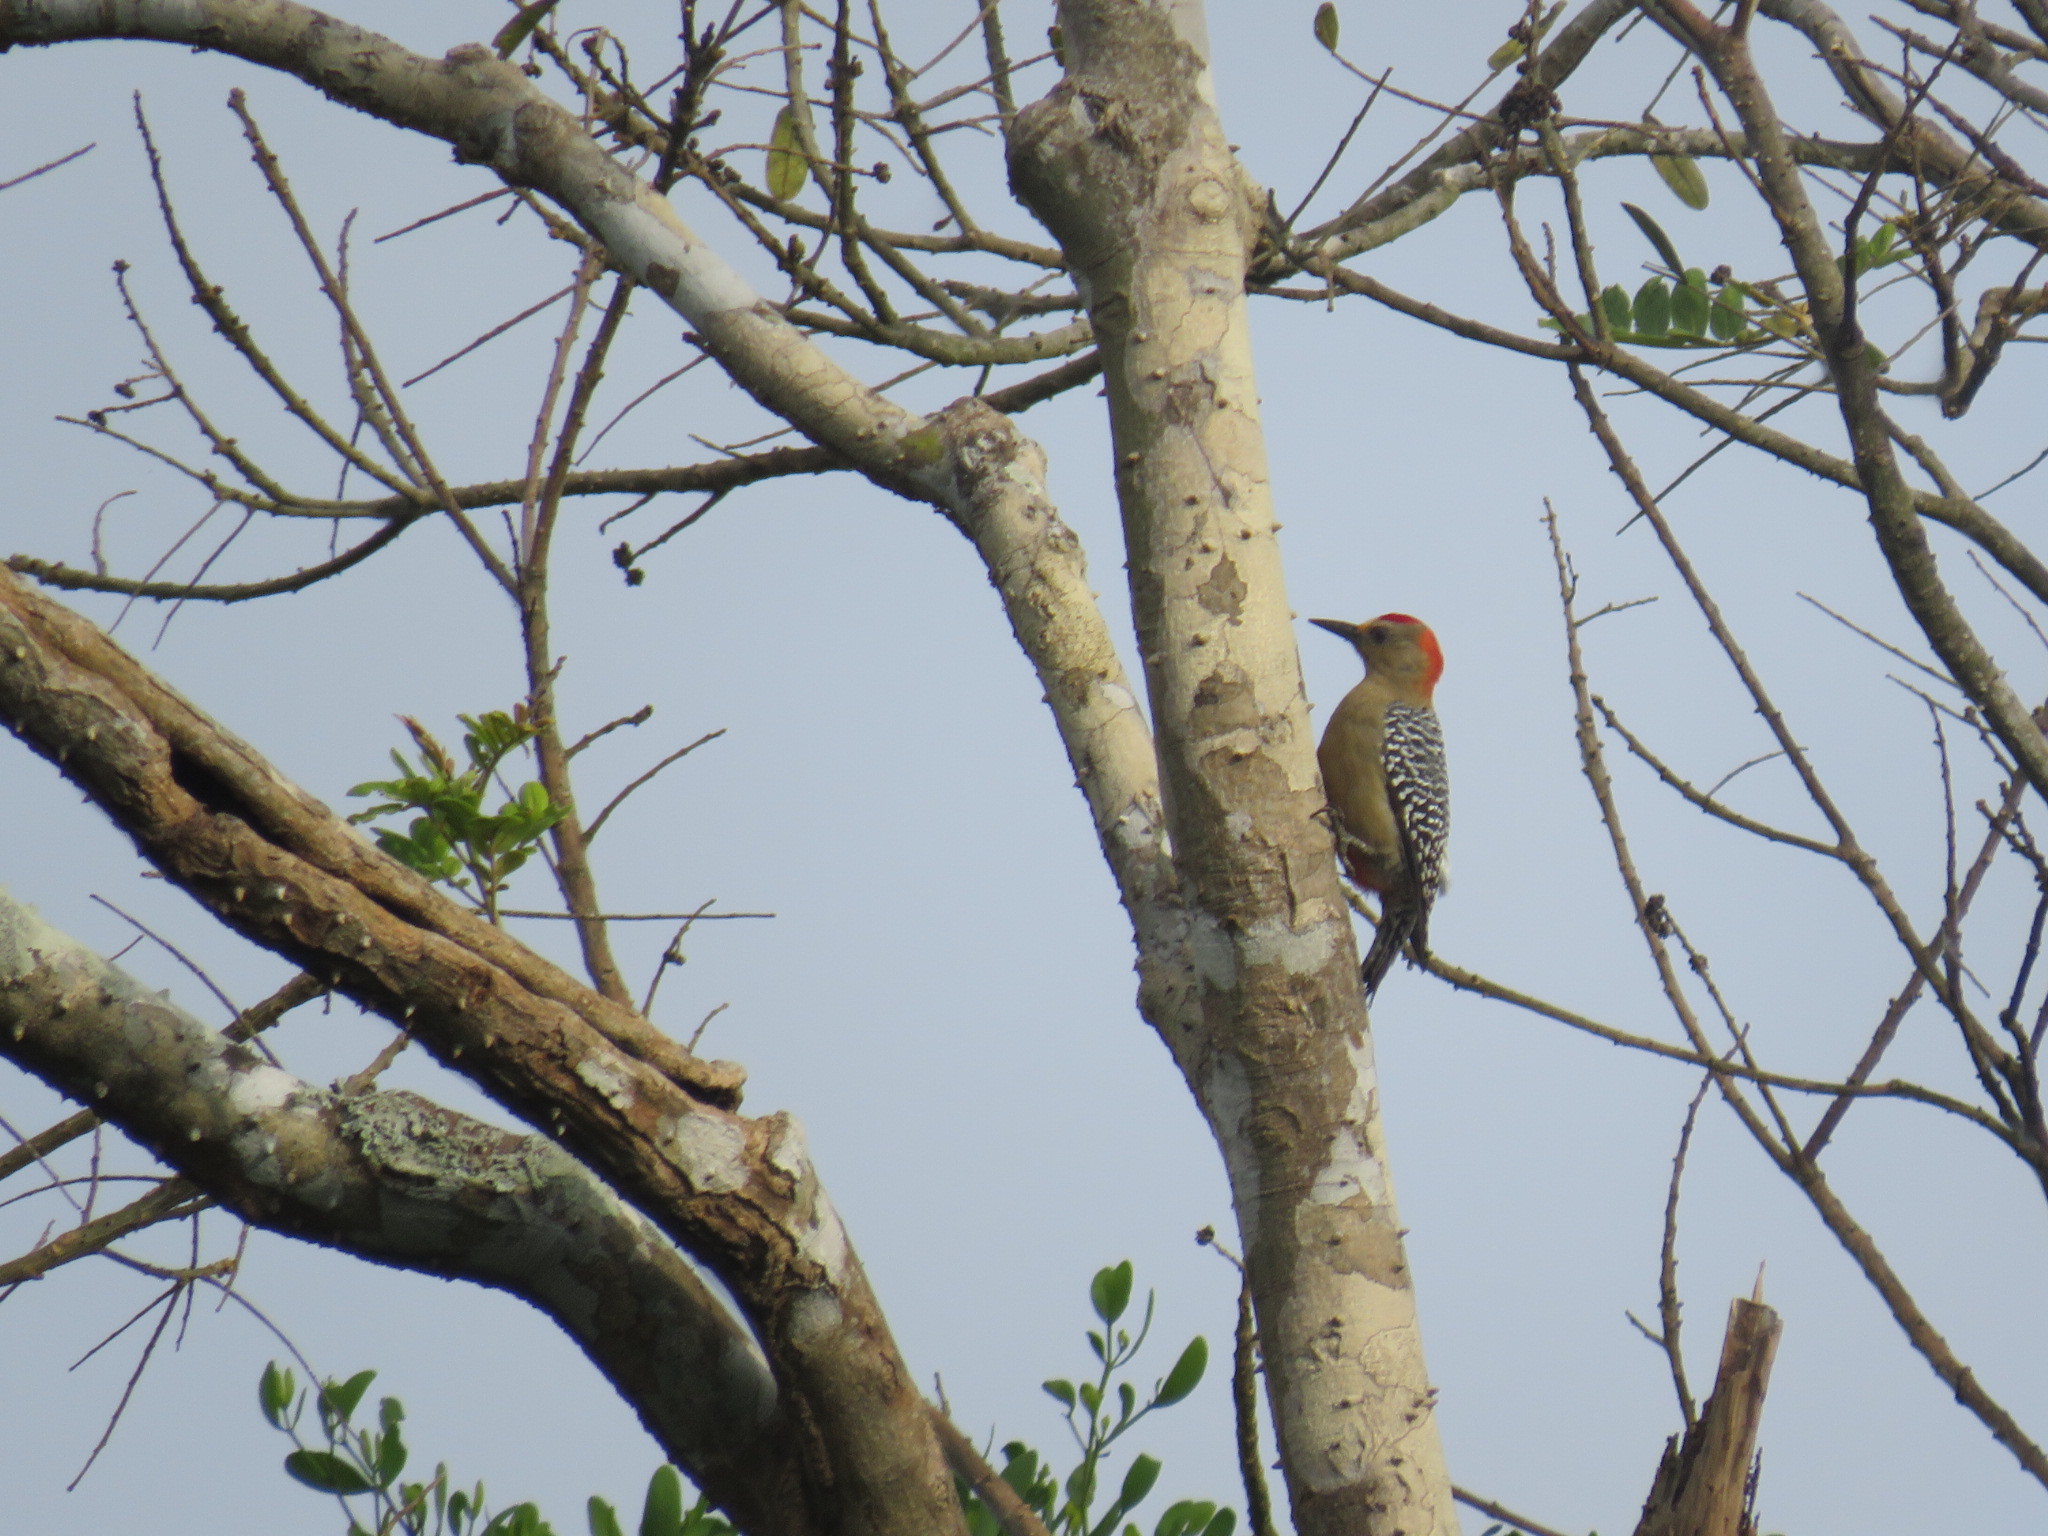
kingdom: Animalia
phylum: Chordata
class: Aves
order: Piciformes
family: Picidae
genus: Melanerpes
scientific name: Melanerpes rubricapillus
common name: Red-crowned woodpecker
